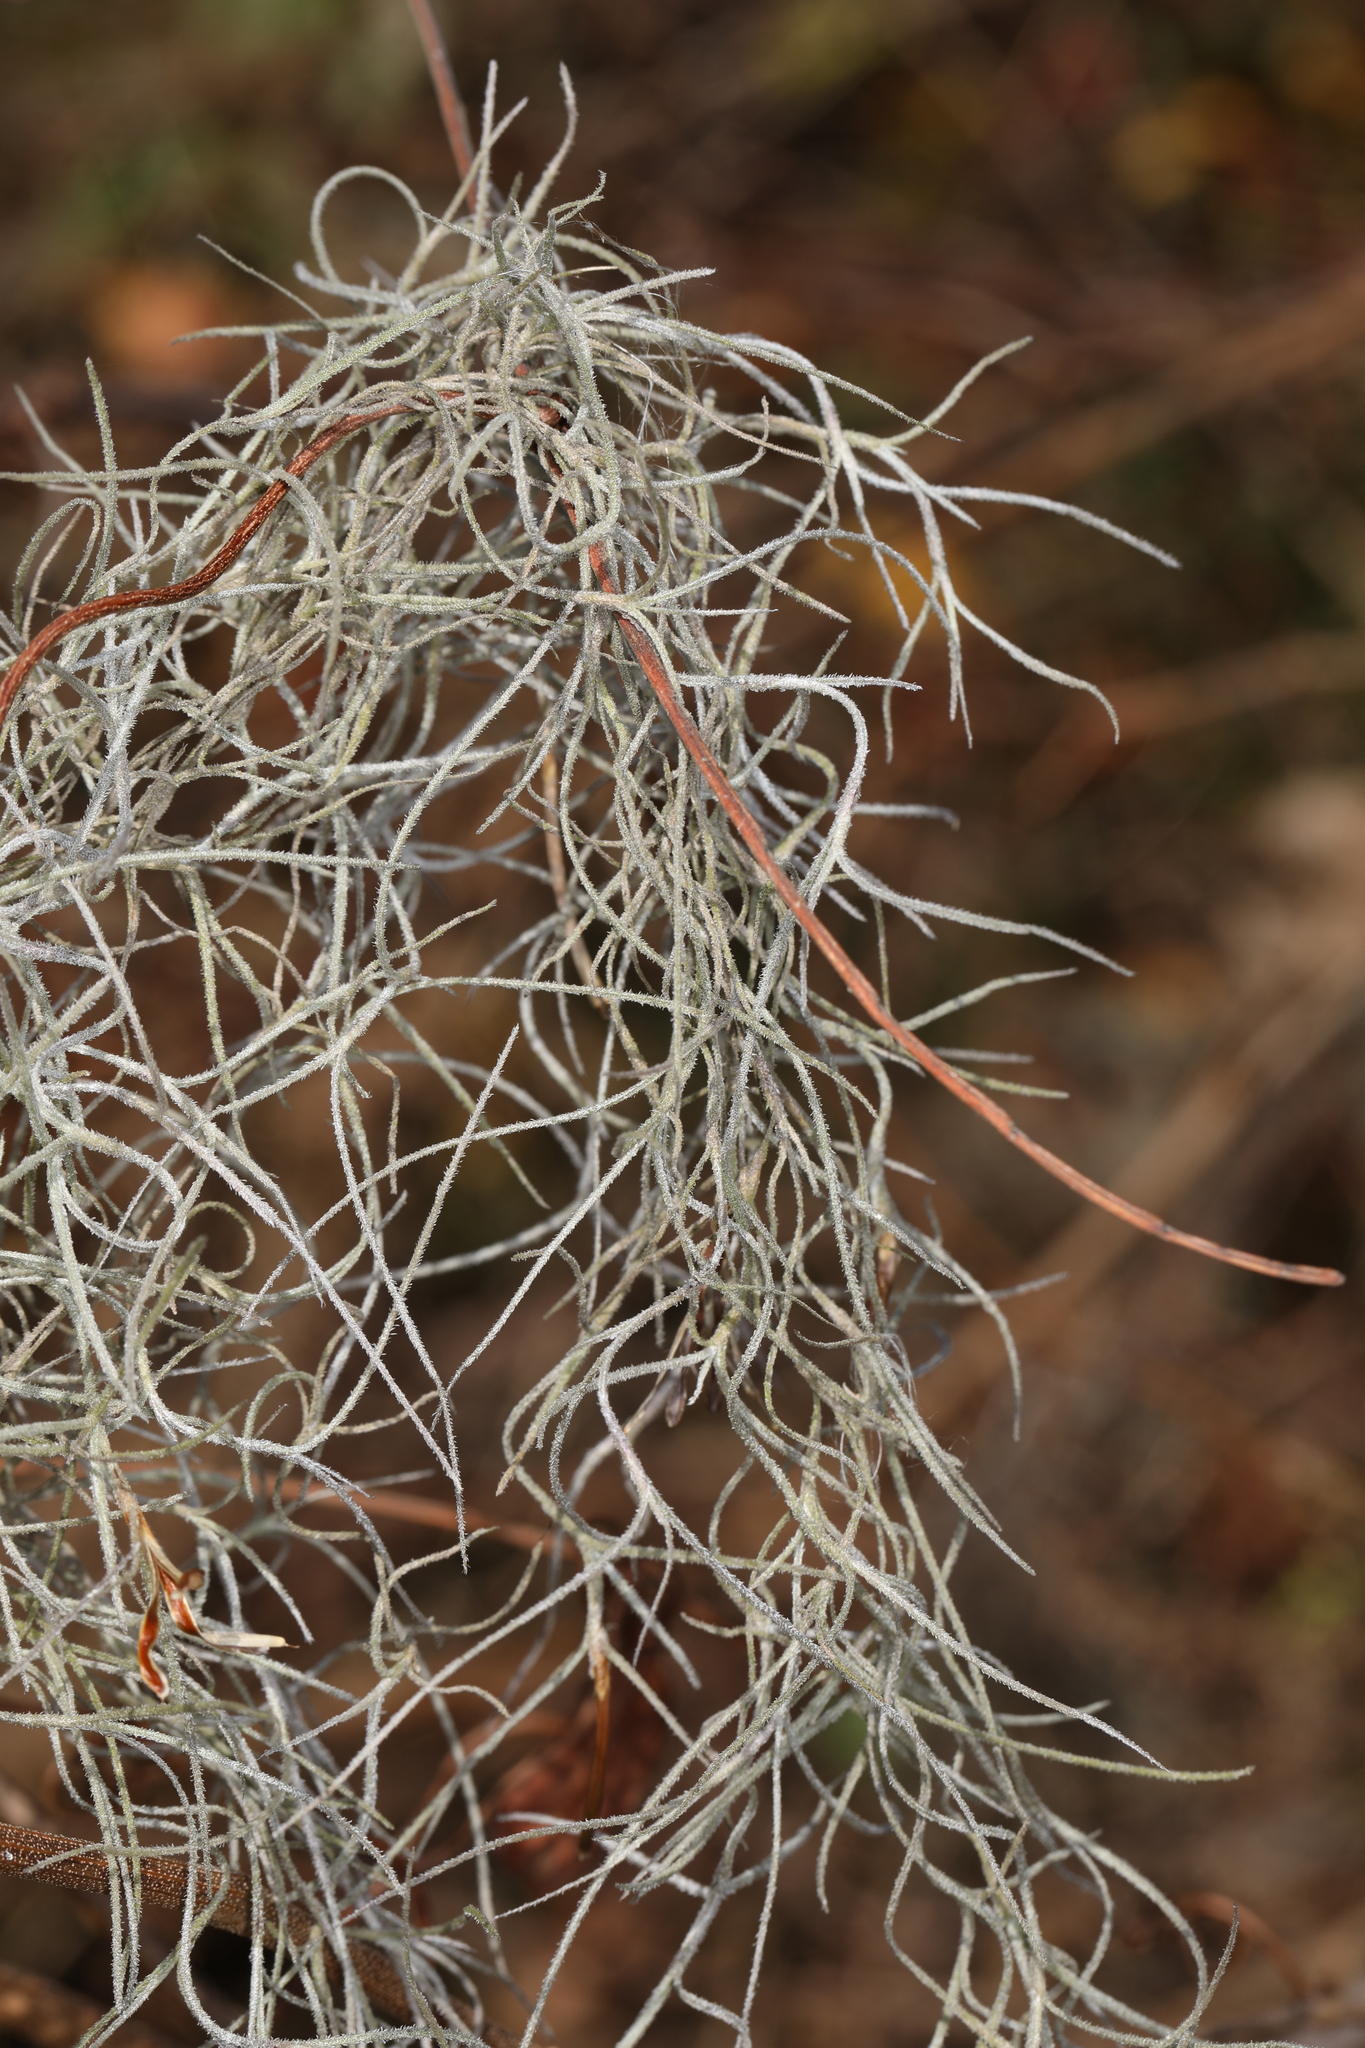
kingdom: Plantae
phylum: Tracheophyta
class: Liliopsida
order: Poales
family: Bromeliaceae
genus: Tillandsia
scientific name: Tillandsia usneoides
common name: Spanish moss
